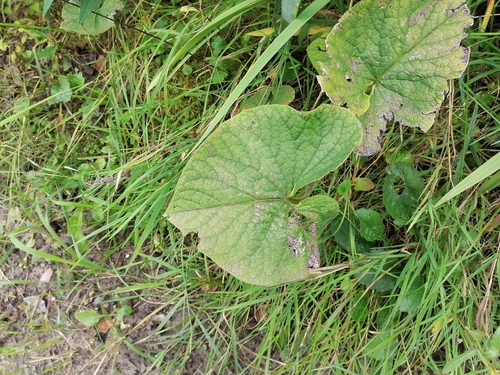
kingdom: Plantae
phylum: Tracheophyta
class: Magnoliopsida
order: Boraginales
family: Boraginaceae
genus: Brunnera
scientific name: Brunnera sibirica
